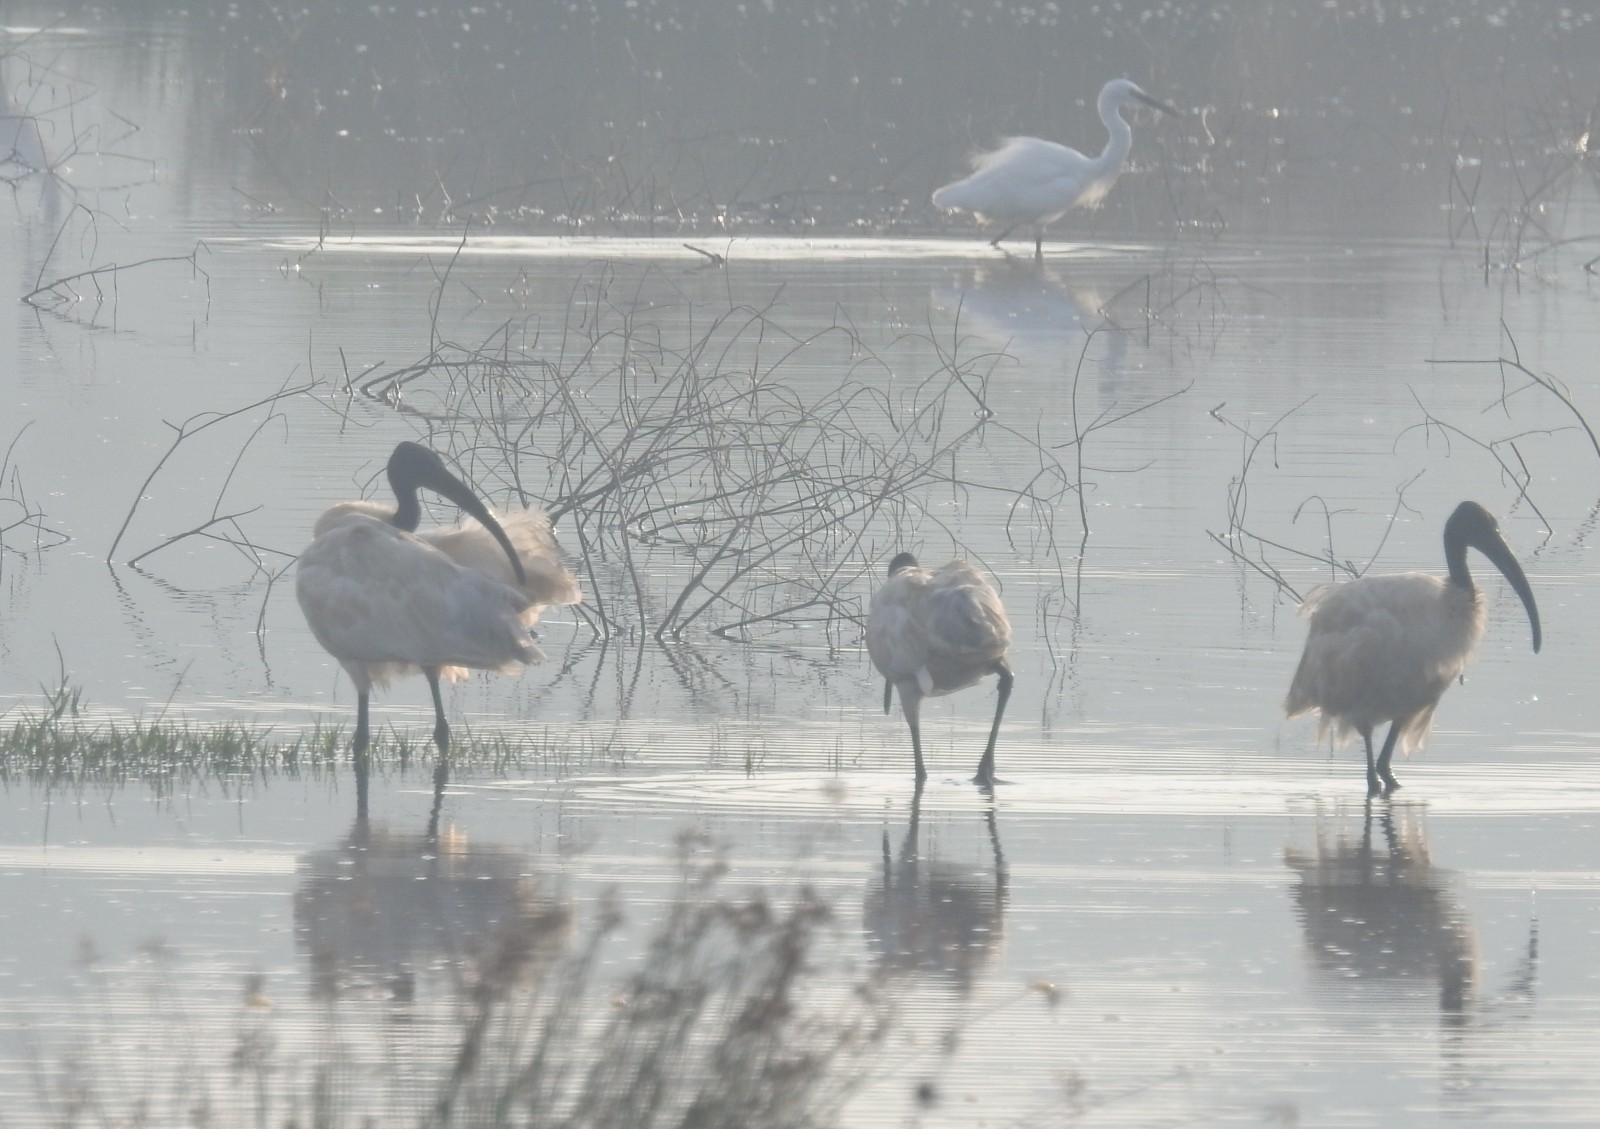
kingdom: Animalia
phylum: Chordata
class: Aves
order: Pelecaniformes
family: Threskiornithidae
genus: Threskiornis
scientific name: Threskiornis melanocephalus
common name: Black-headed ibis
